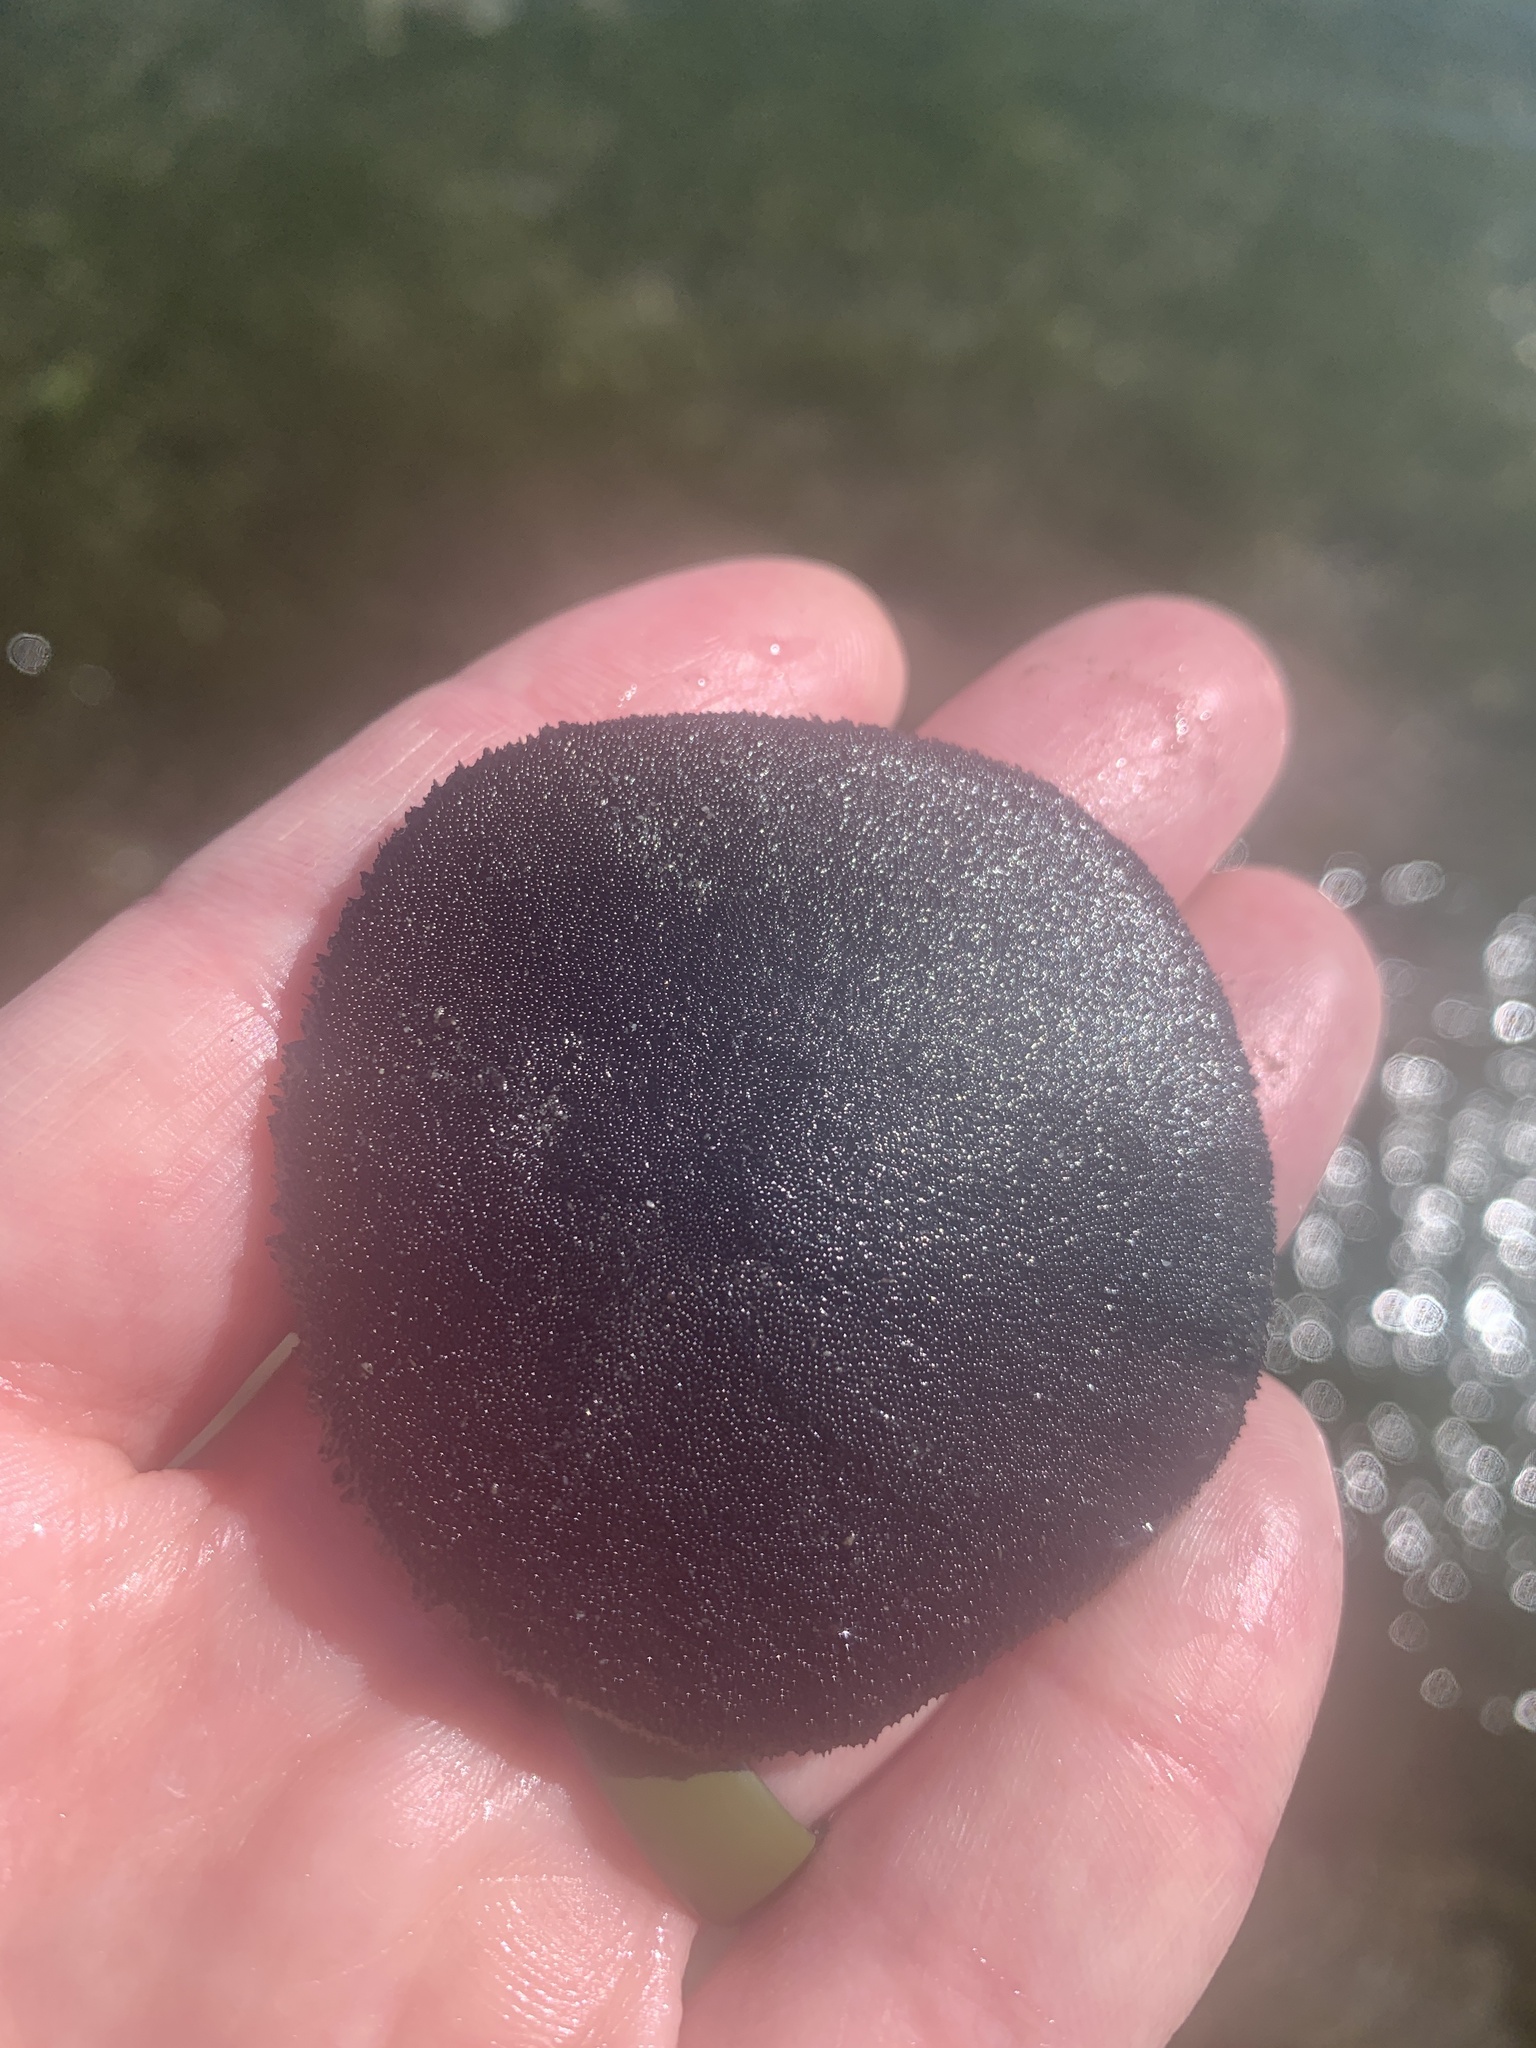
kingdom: Animalia
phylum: Echinodermata
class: Echinoidea
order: Echinolampadacea
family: Dendrasteridae
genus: Dendraster
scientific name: Dendraster excentricus
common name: Eccentric sand dollar sea urchin
